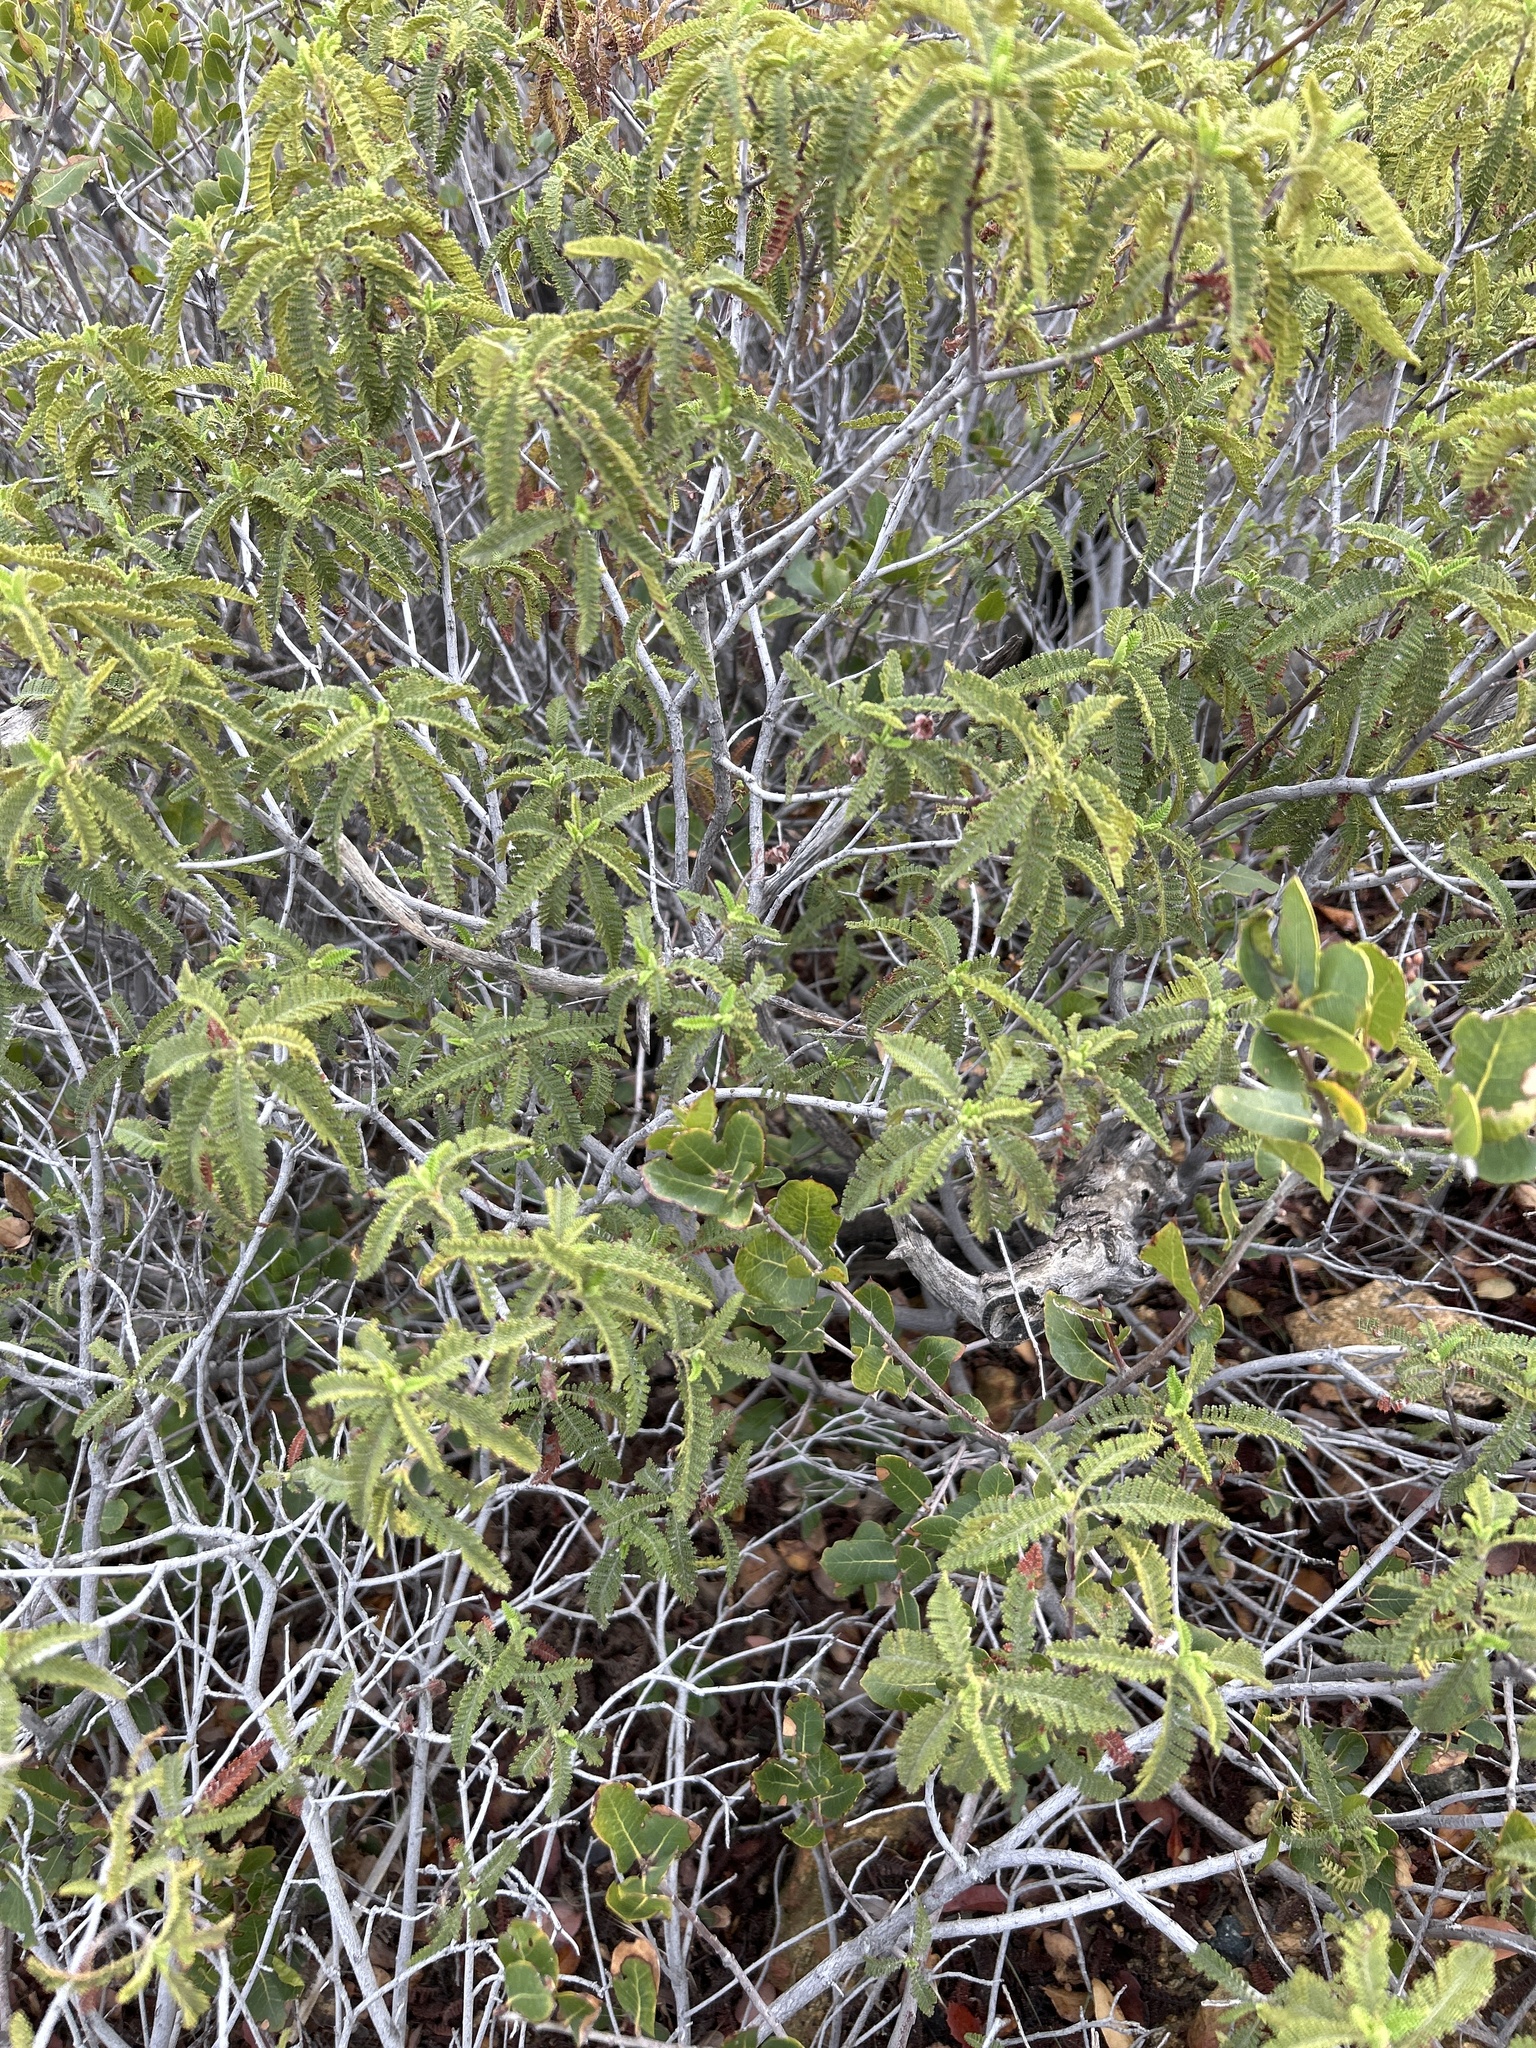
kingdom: Plantae
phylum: Tracheophyta
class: Magnoliopsida
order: Rosales
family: Rosaceae
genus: Chamaebatia
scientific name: Chamaebatia australis
